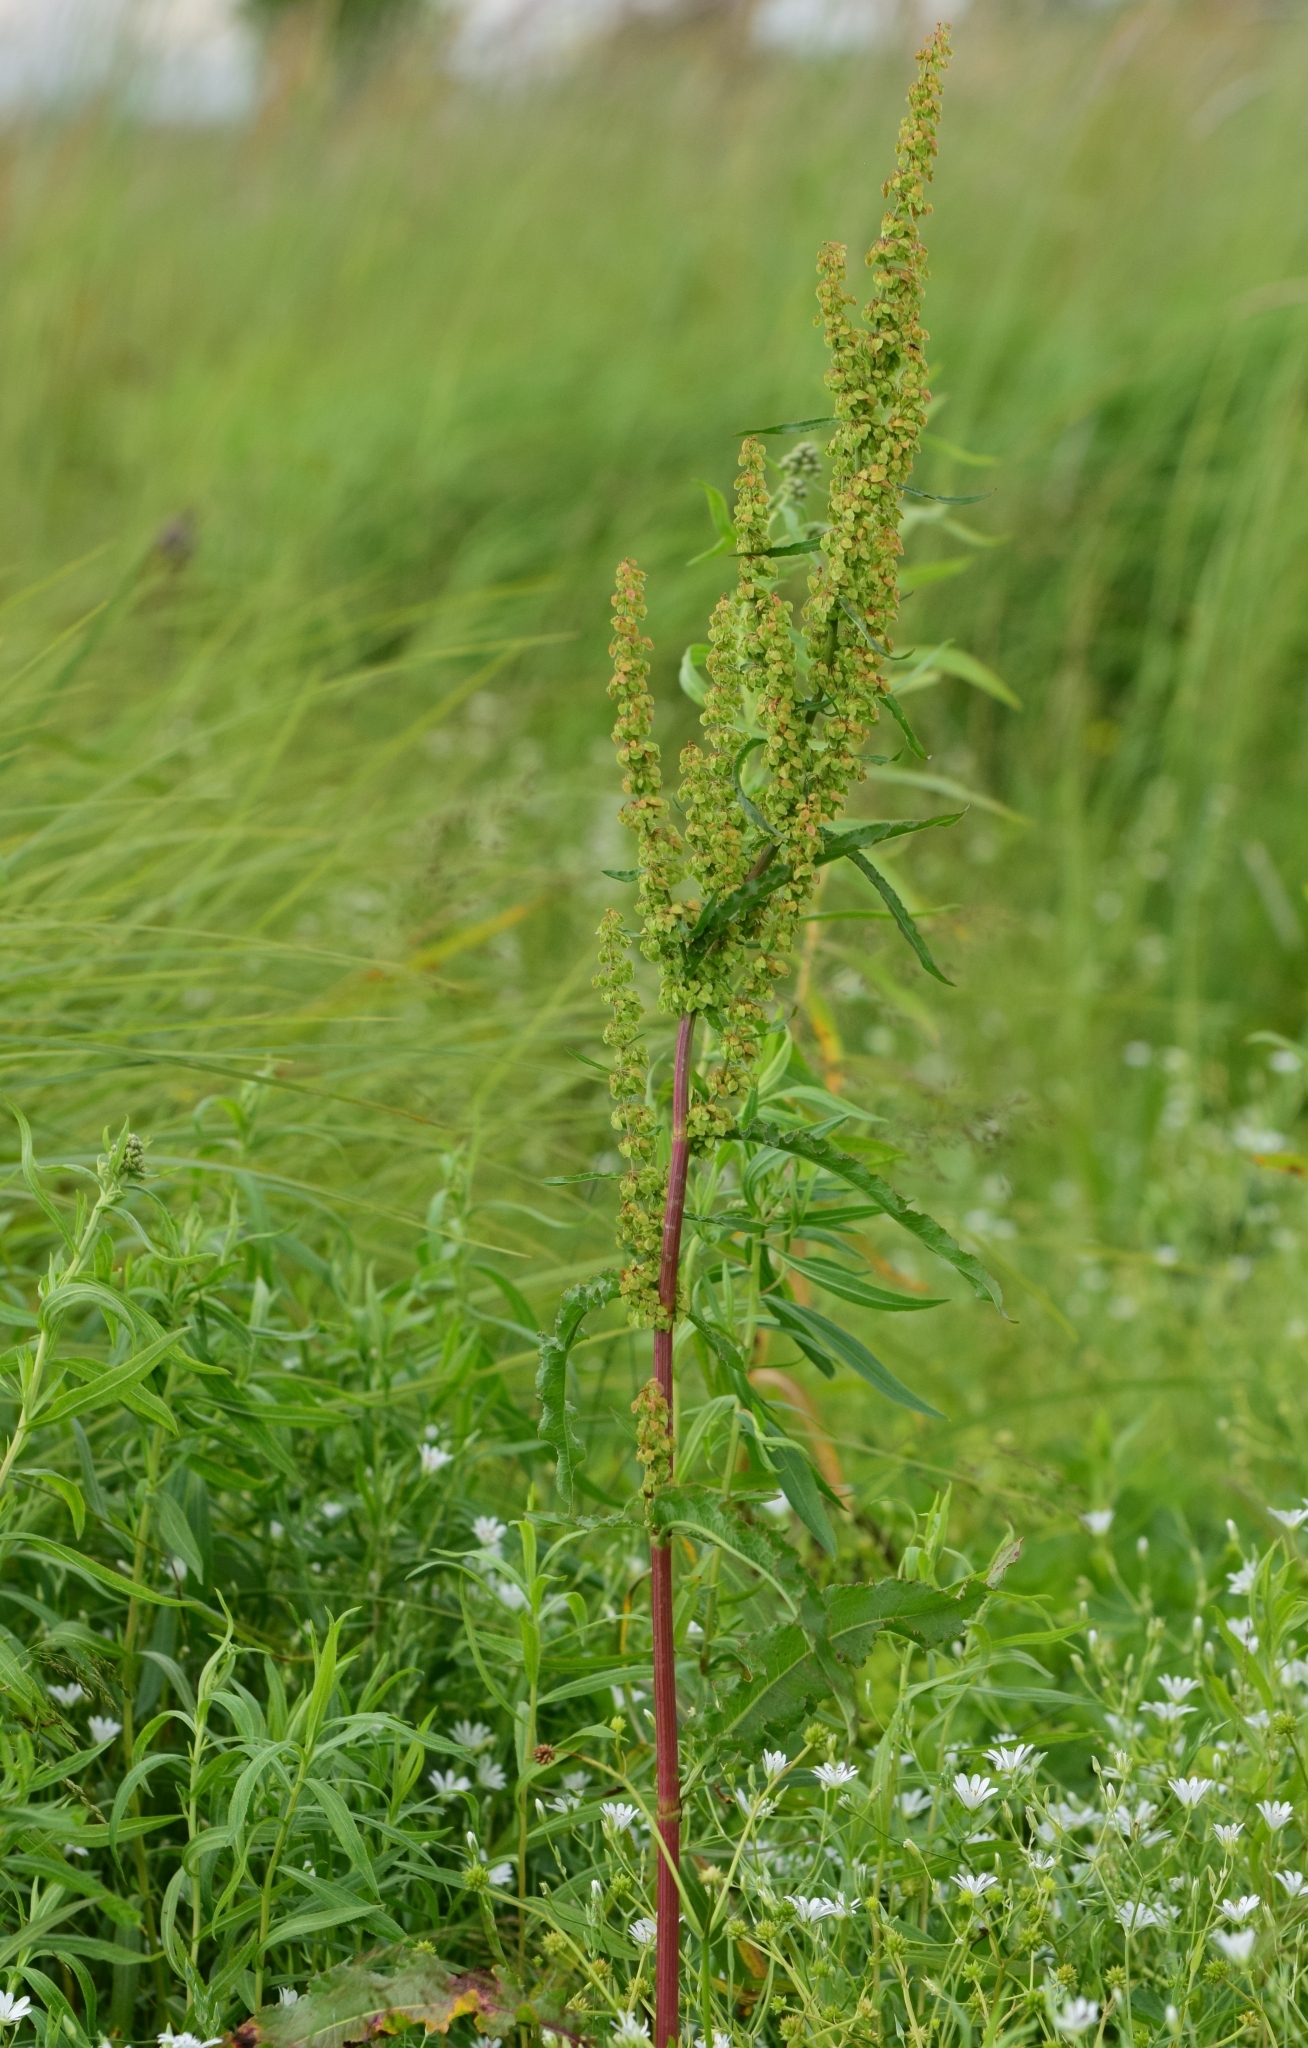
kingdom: Plantae
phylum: Tracheophyta
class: Magnoliopsida
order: Caryophyllales
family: Polygonaceae
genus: Rumex
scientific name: Rumex crispus
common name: Curled dock
